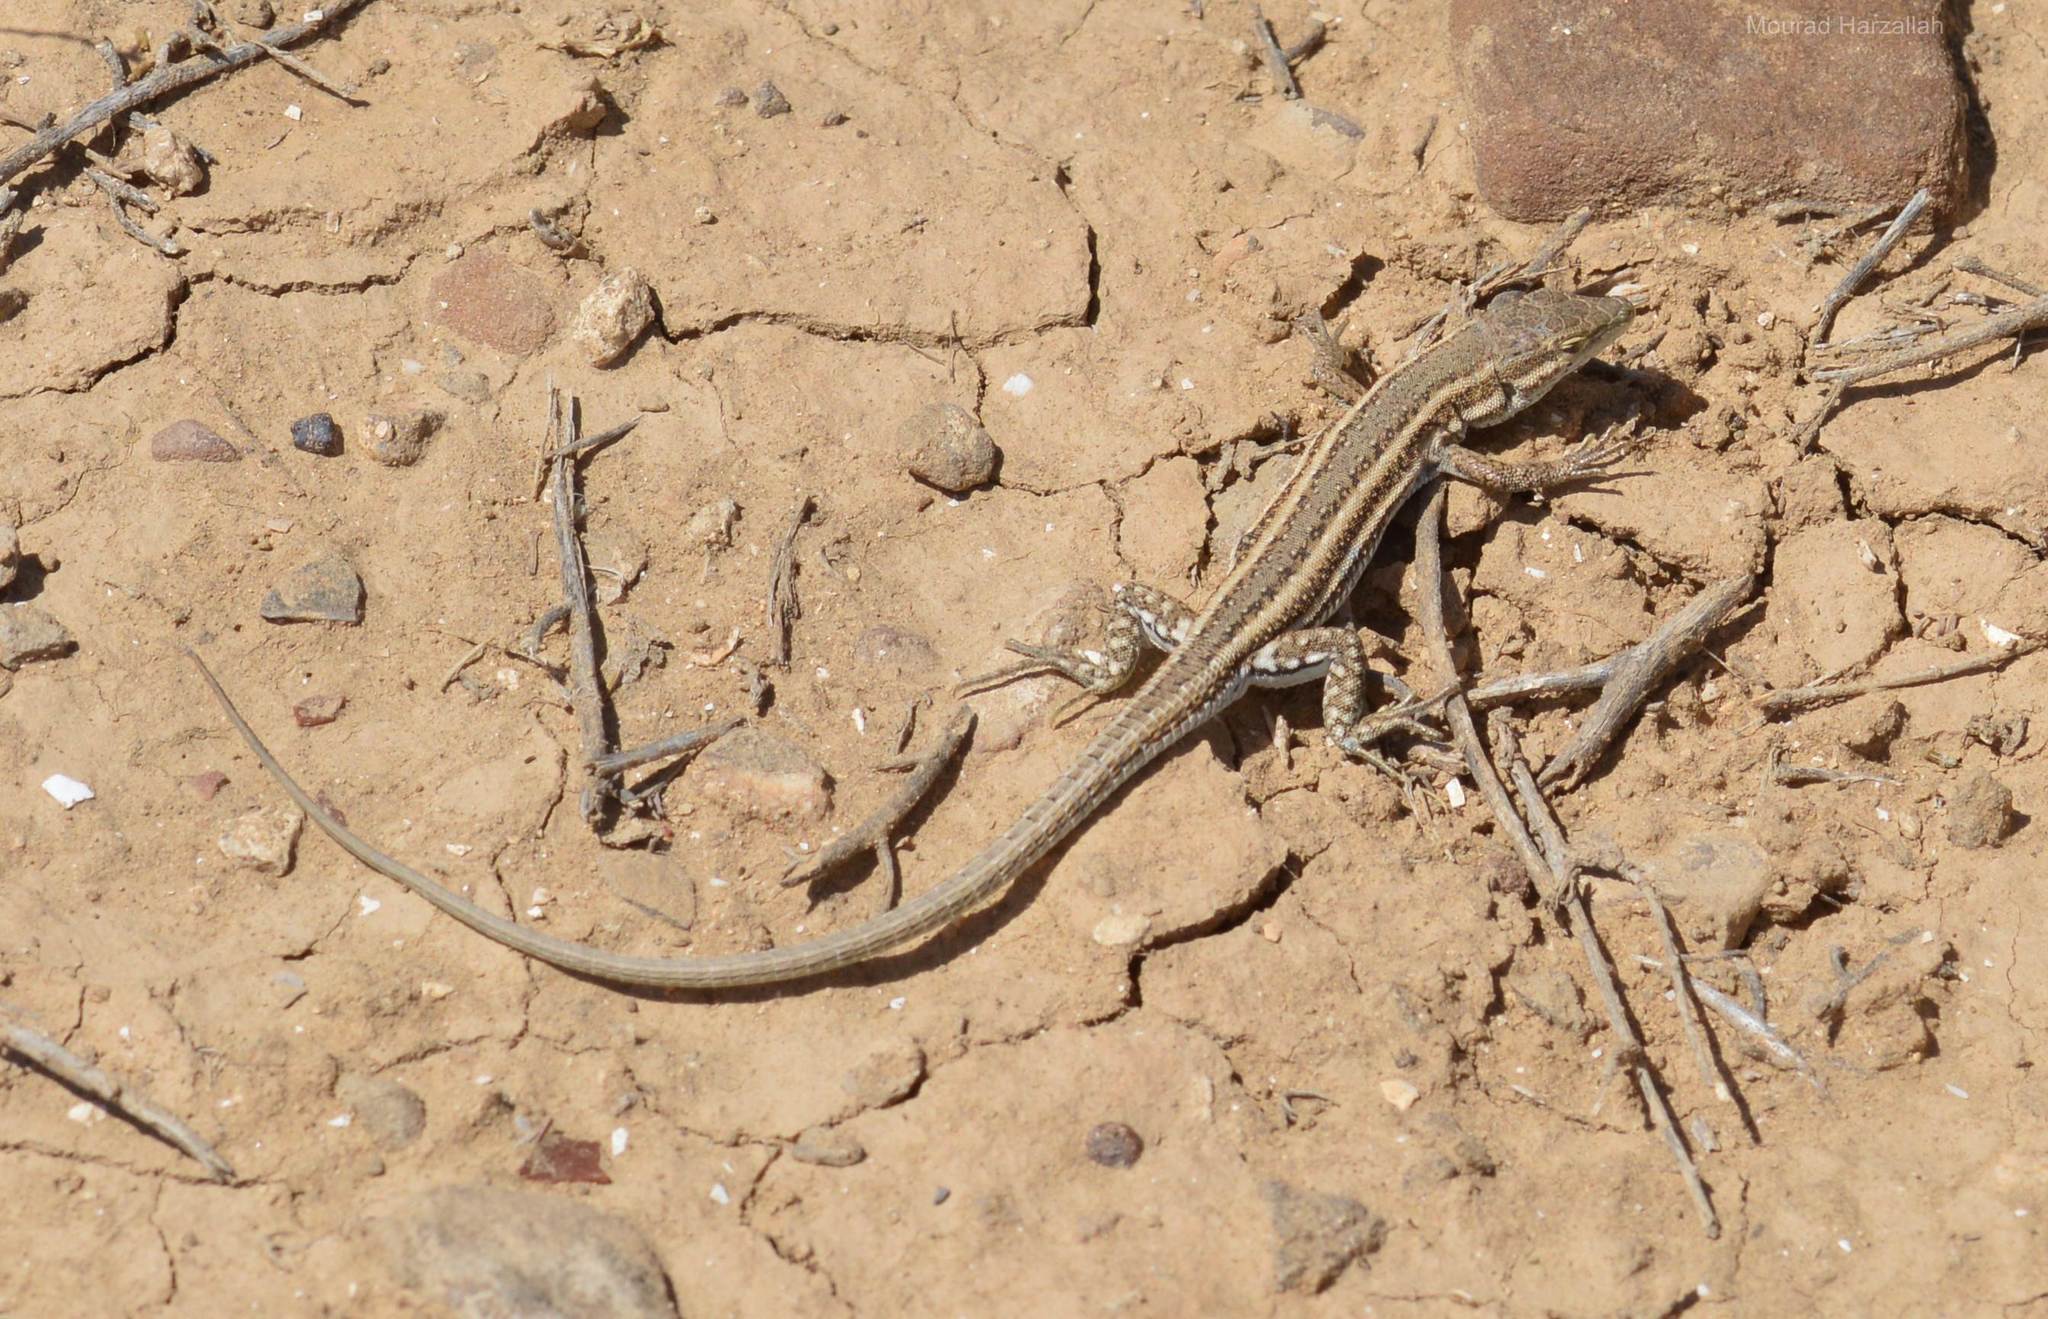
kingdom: Animalia
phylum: Chordata
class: Squamata
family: Lacertidae
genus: Mesalina
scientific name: Mesalina olivieri
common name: Oliver's desert racer
